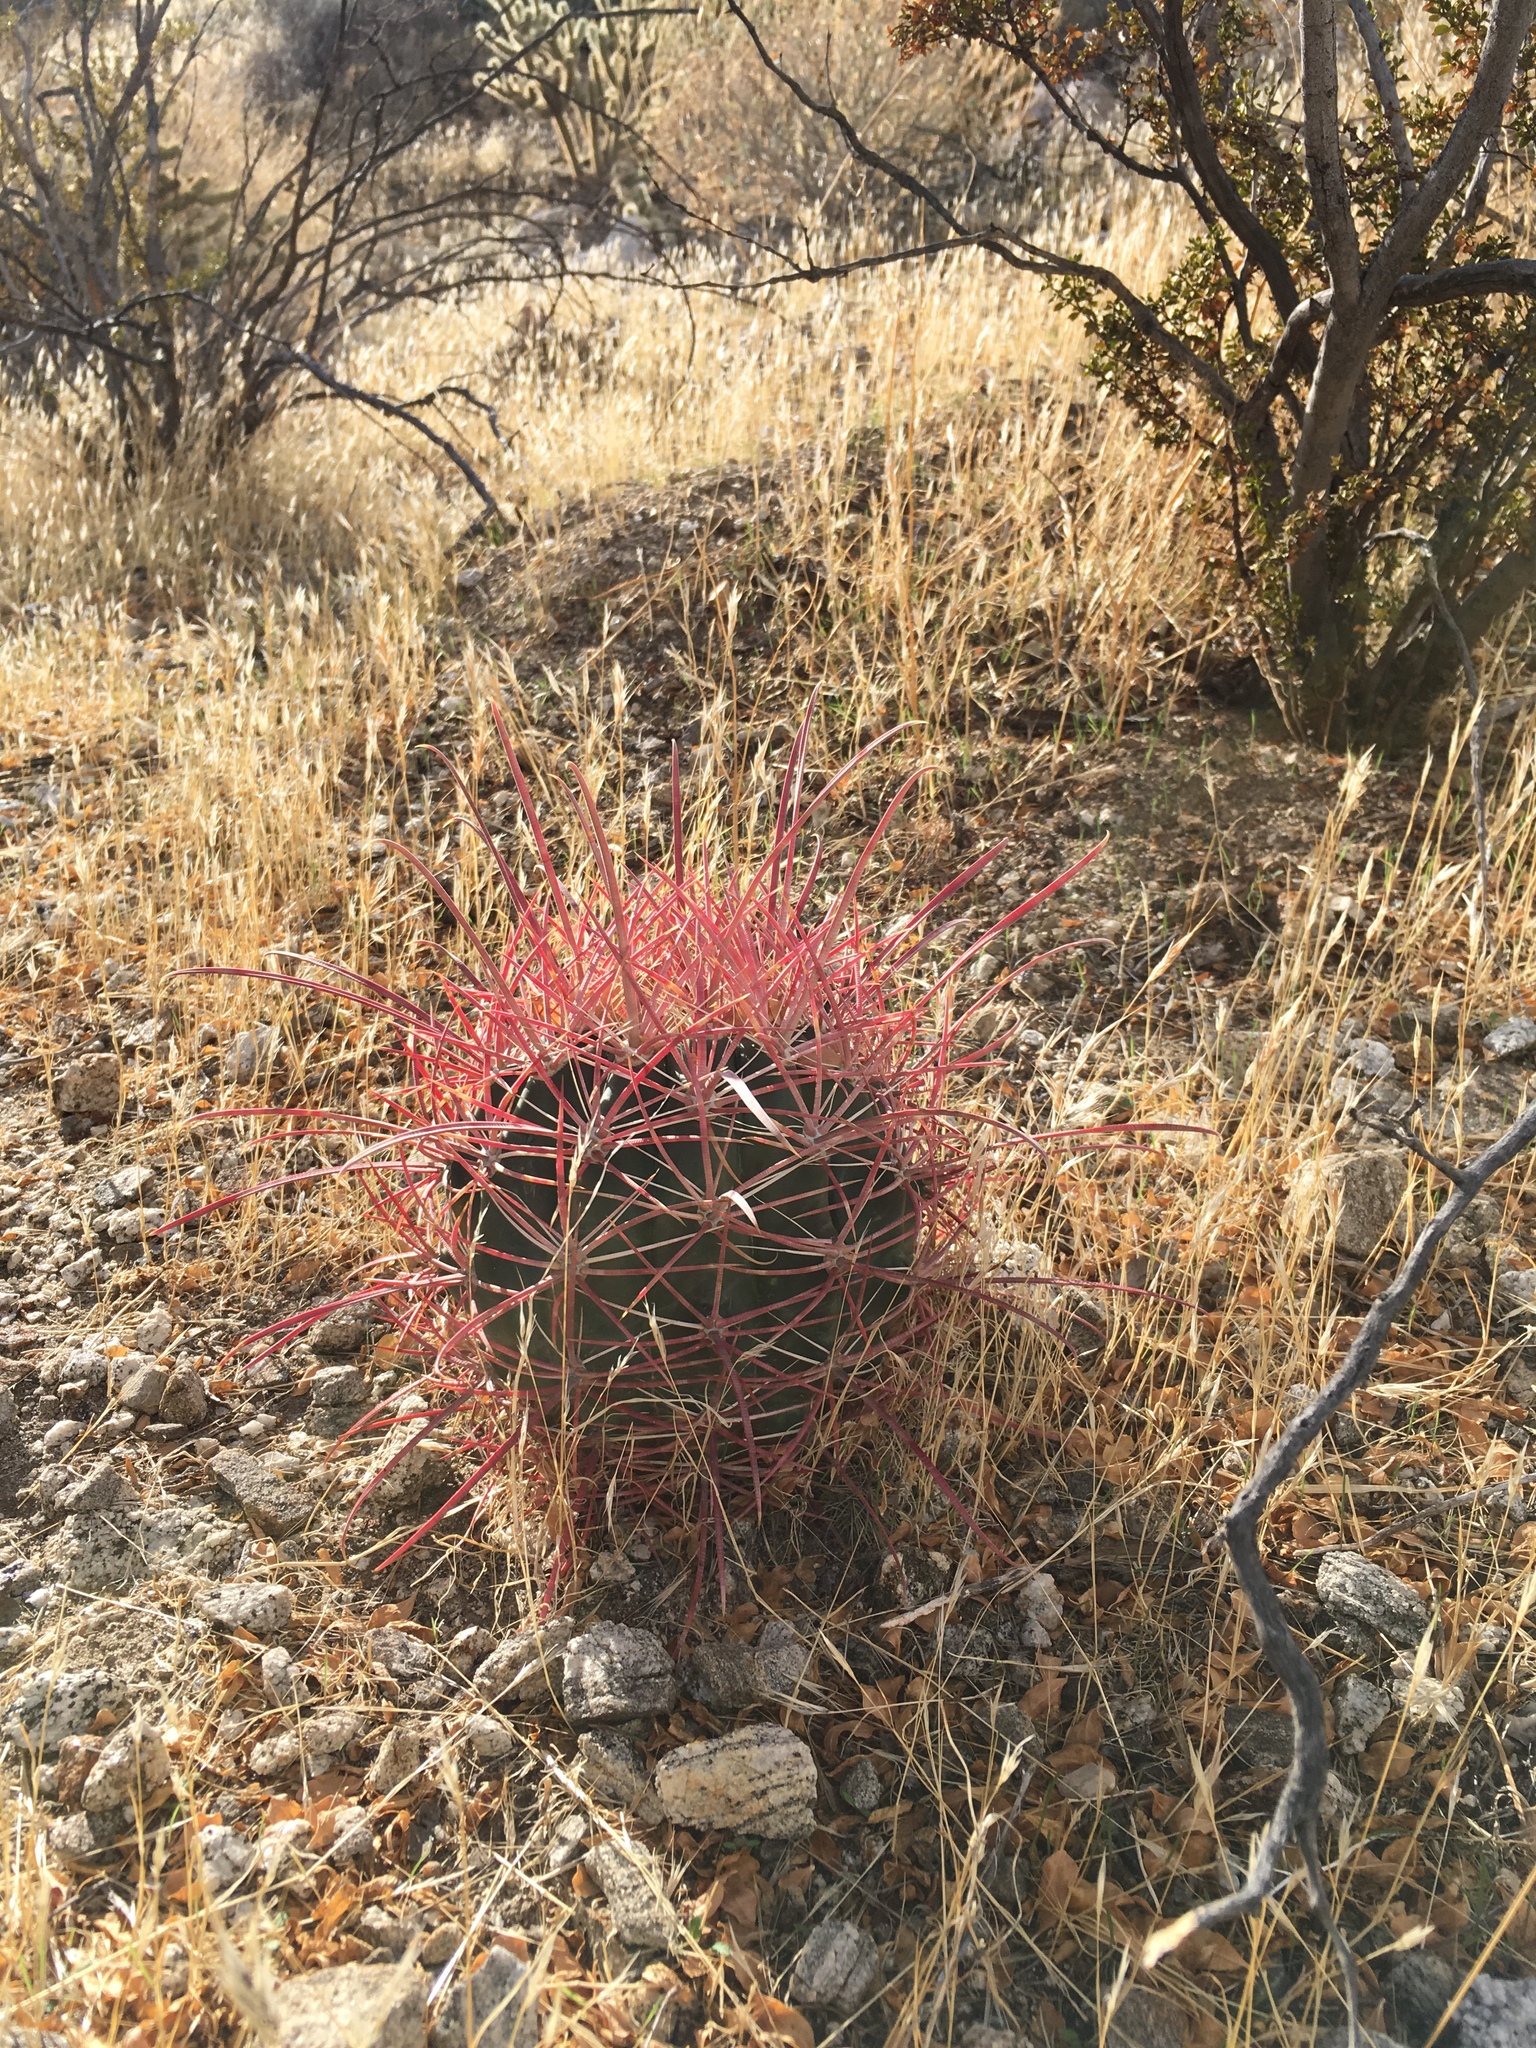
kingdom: Plantae
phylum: Tracheophyta
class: Magnoliopsida
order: Caryophyllales
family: Cactaceae
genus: Ferocactus
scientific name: Ferocactus cylindraceus
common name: California barrel cactus
